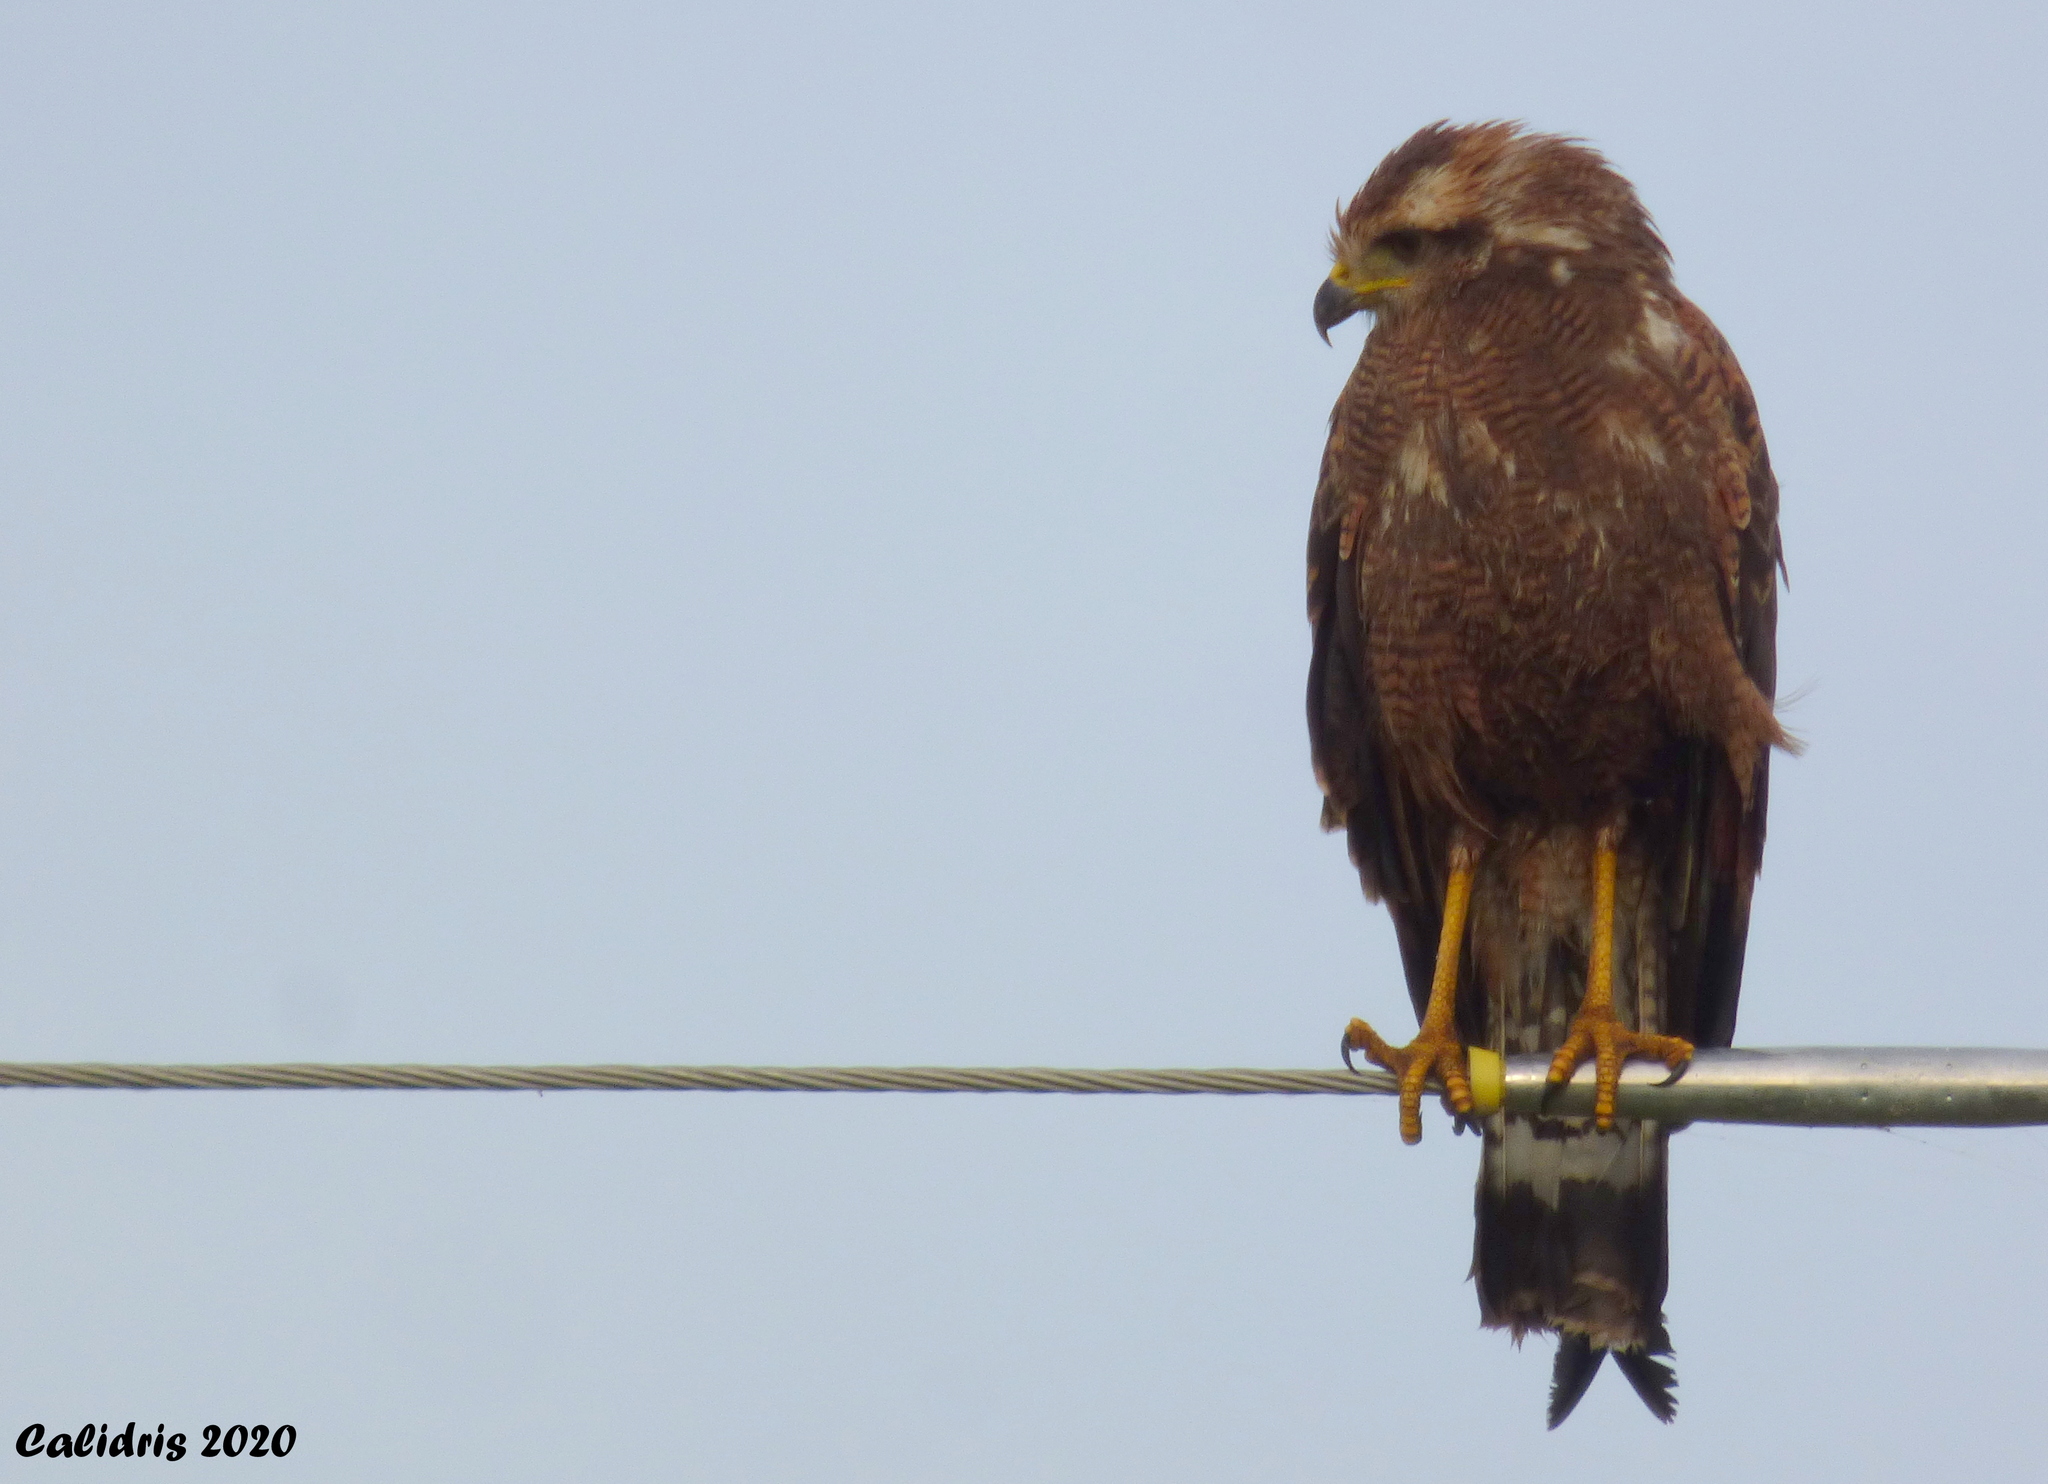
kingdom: Animalia
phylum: Chordata
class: Aves
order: Accipitriformes
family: Accipitridae
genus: Buteogallus
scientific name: Buteogallus meridionalis
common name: Savanna hawk
